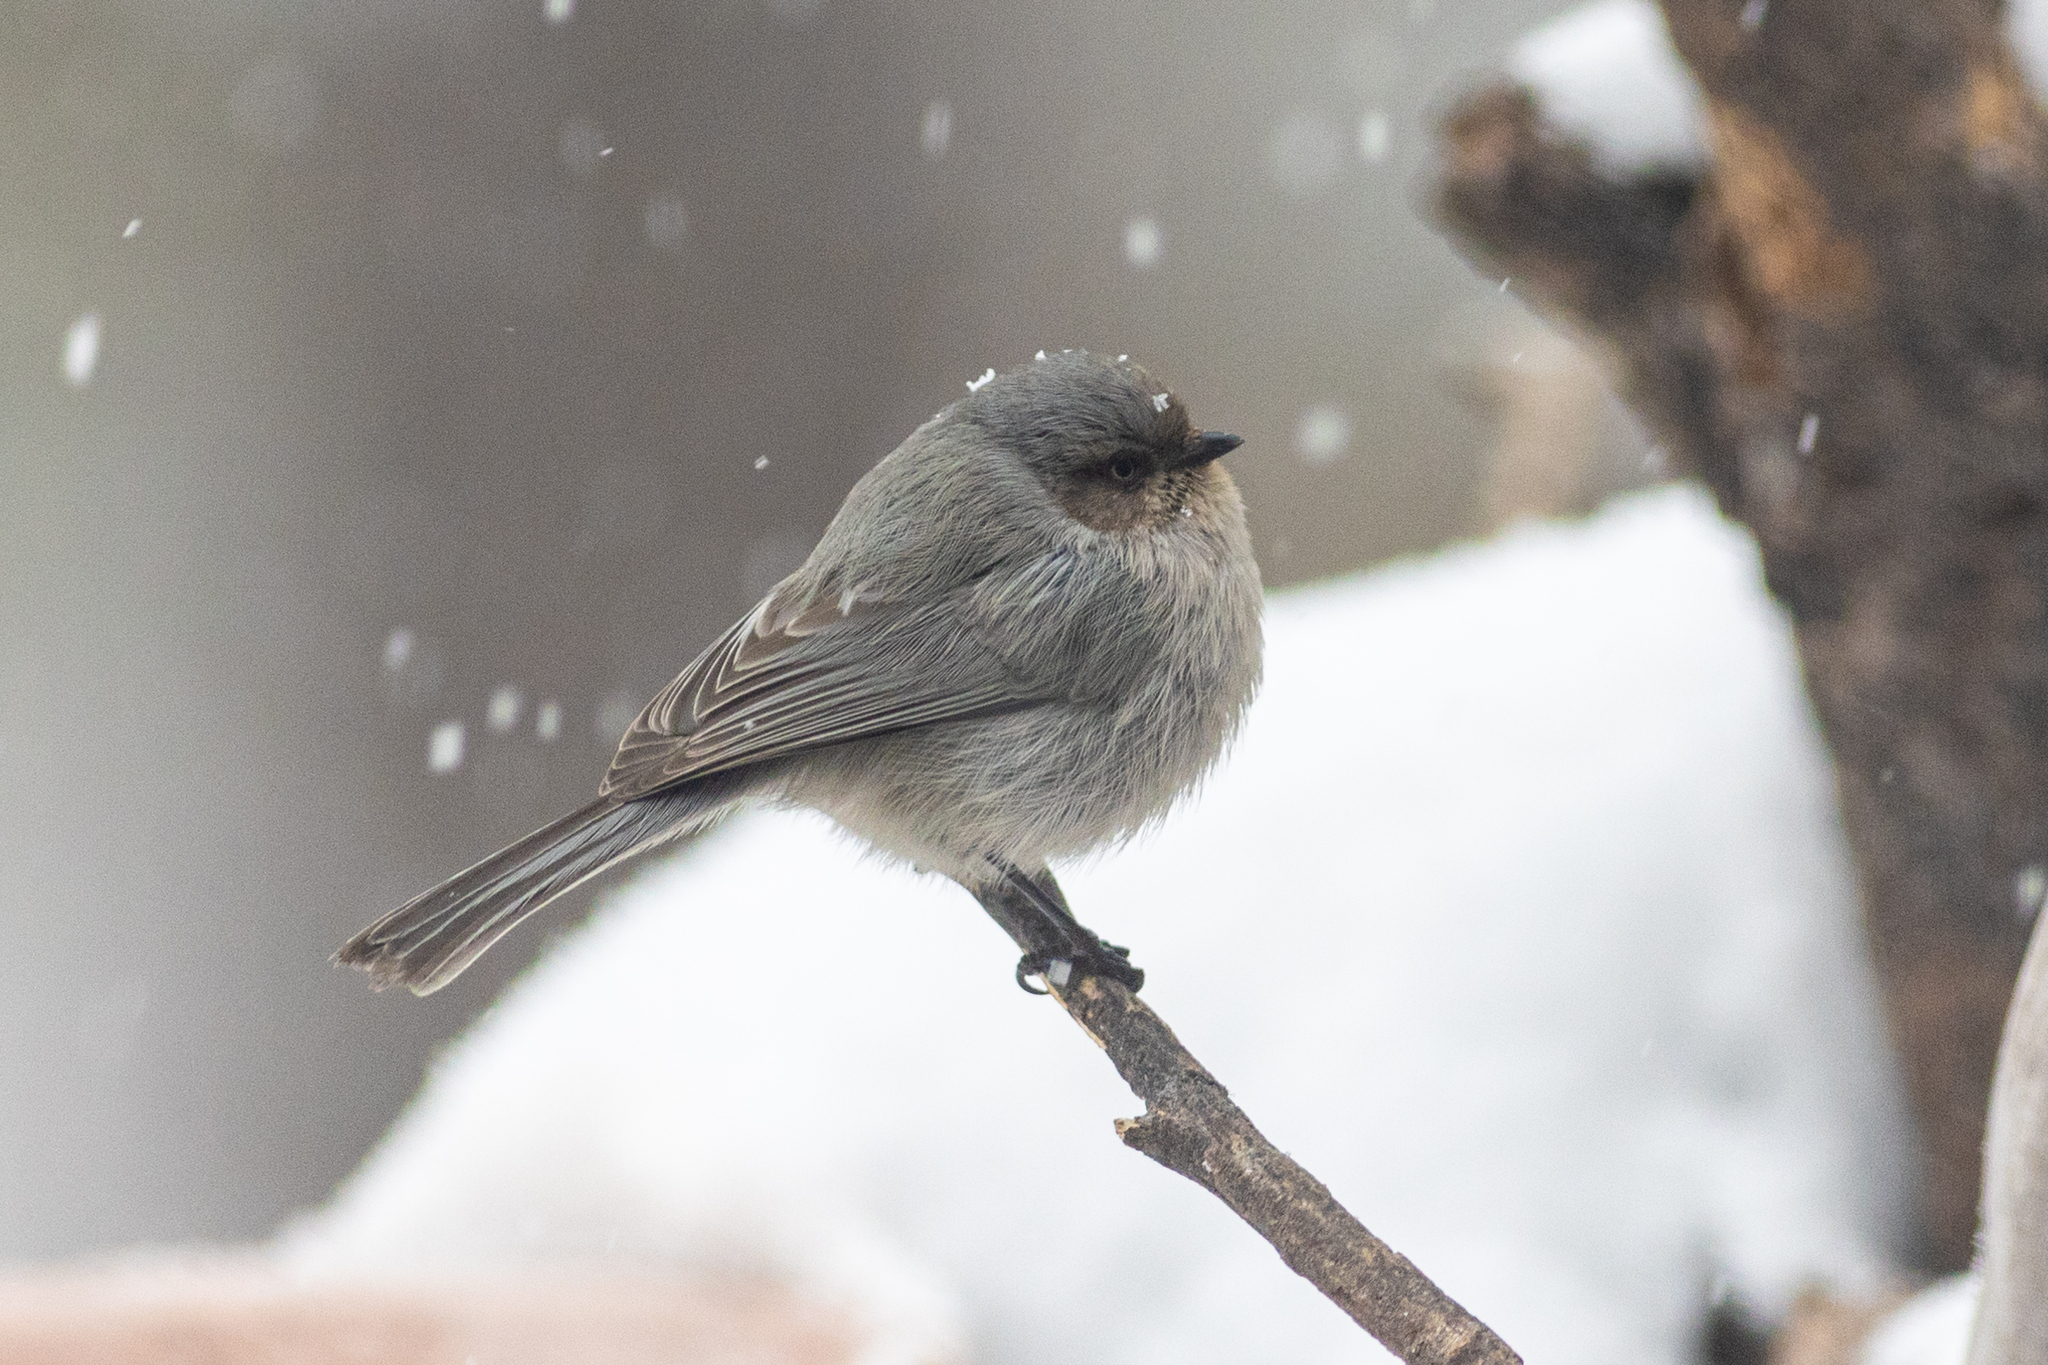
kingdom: Animalia
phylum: Chordata
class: Aves
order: Passeriformes
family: Aegithalidae
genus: Psaltriparus
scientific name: Psaltriparus minimus
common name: American bushtit
